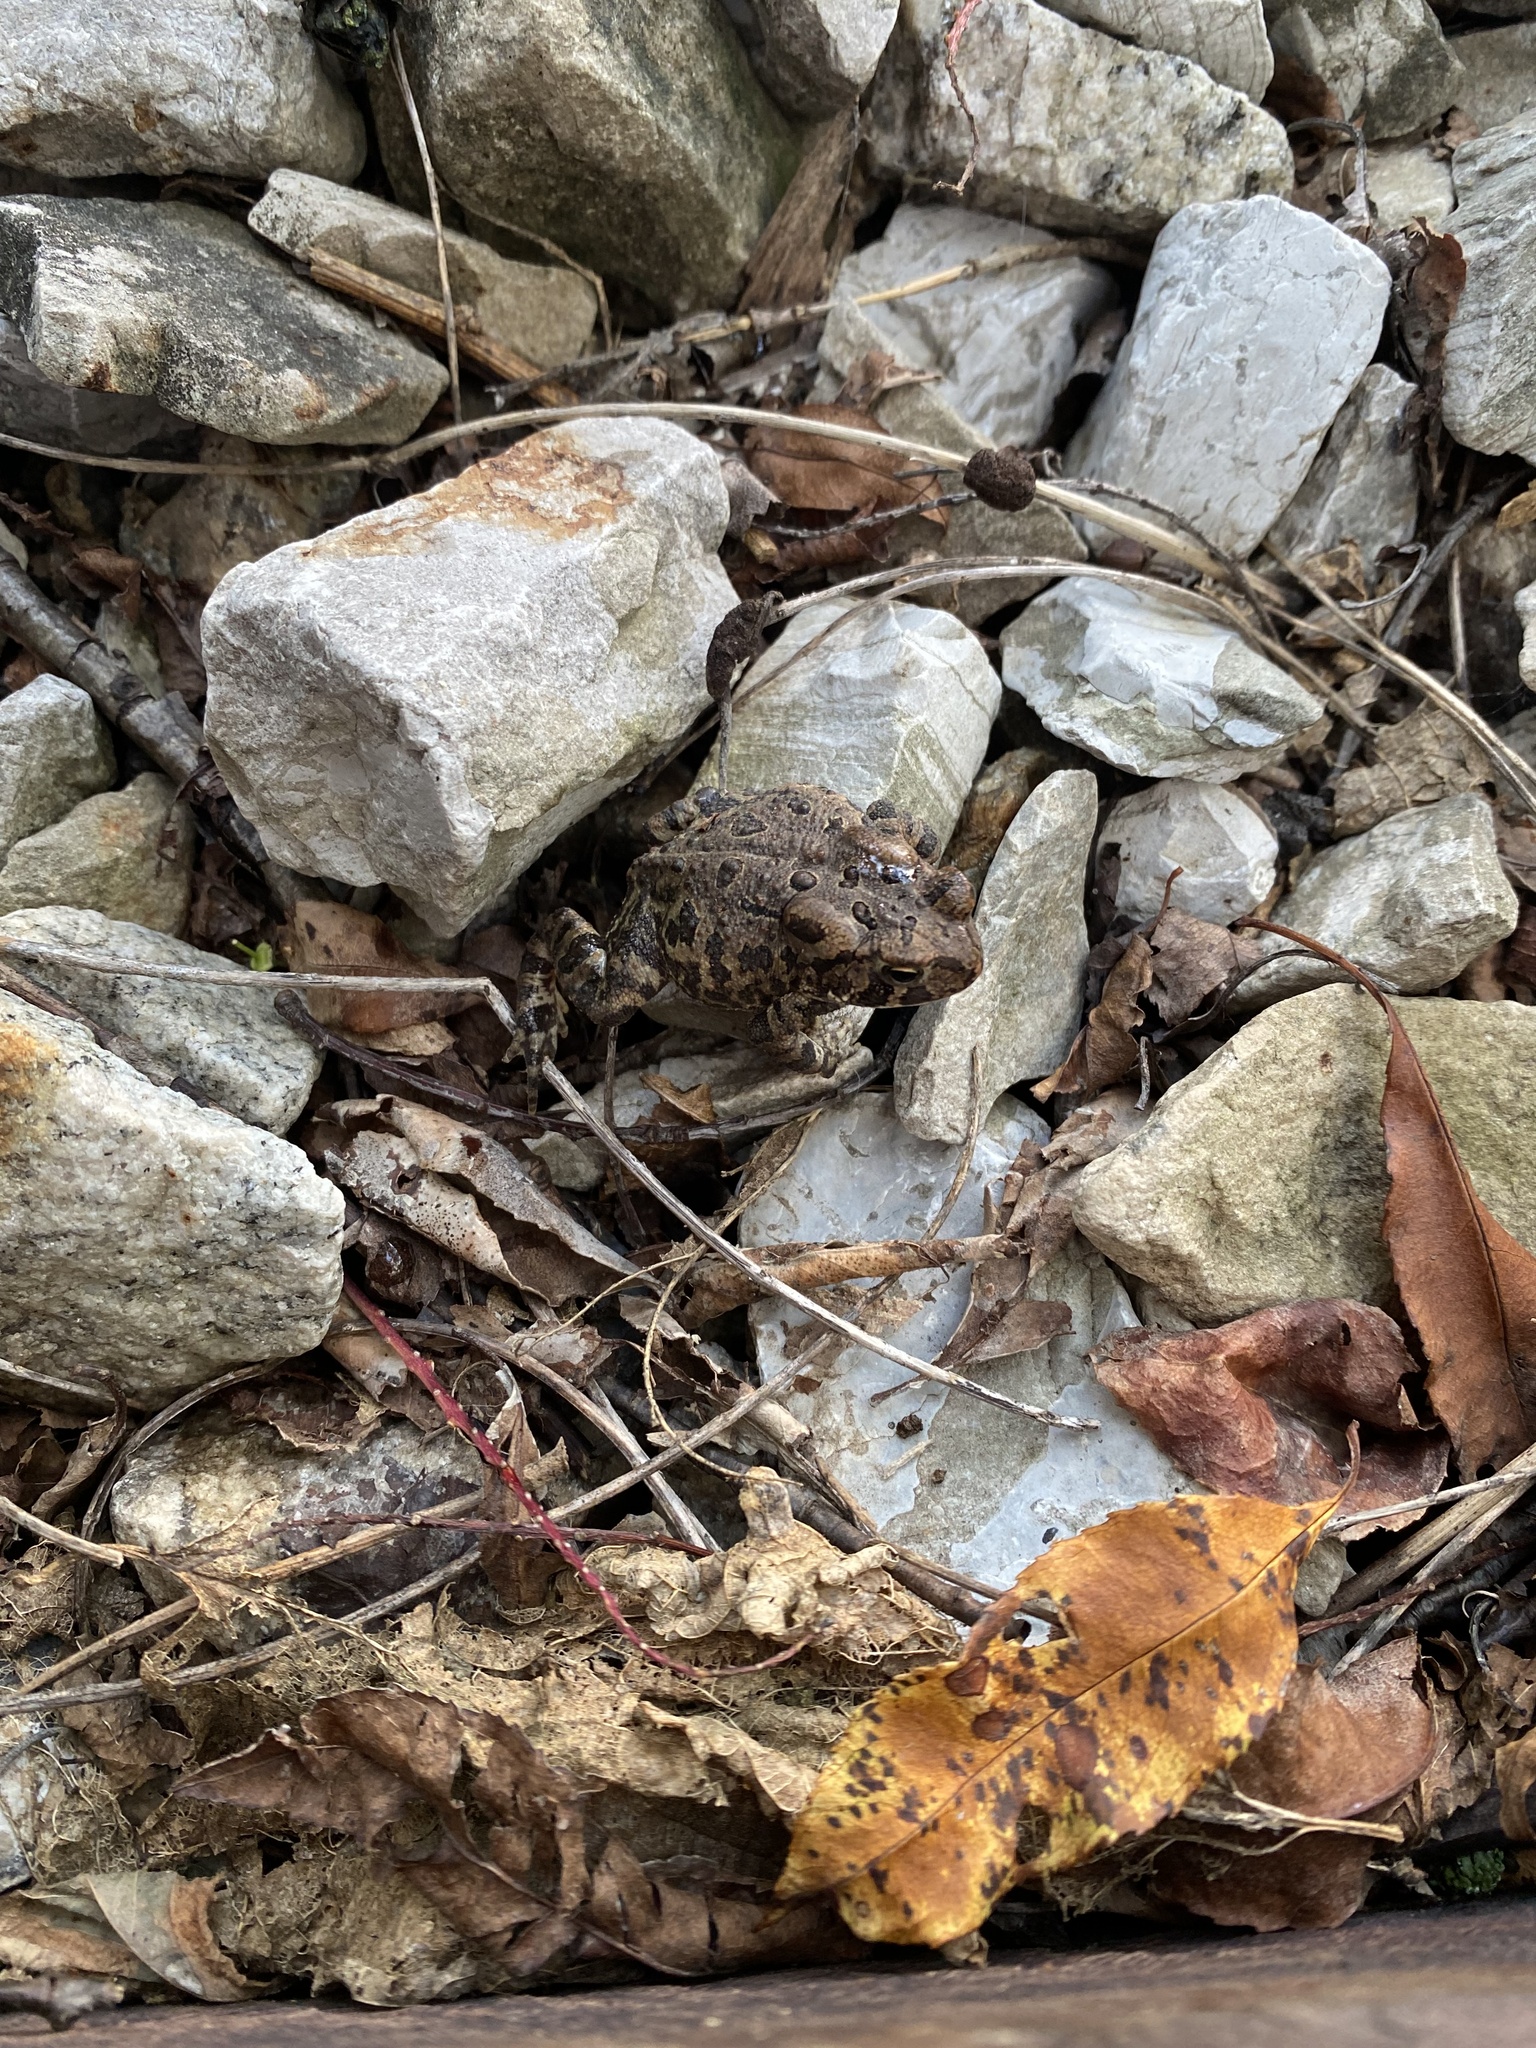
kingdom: Animalia
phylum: Chordata
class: Amphibia
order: Anura
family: Bufonidae
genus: Anaxyrus
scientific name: Anaxyrus fowleri
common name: Fowler's toad
